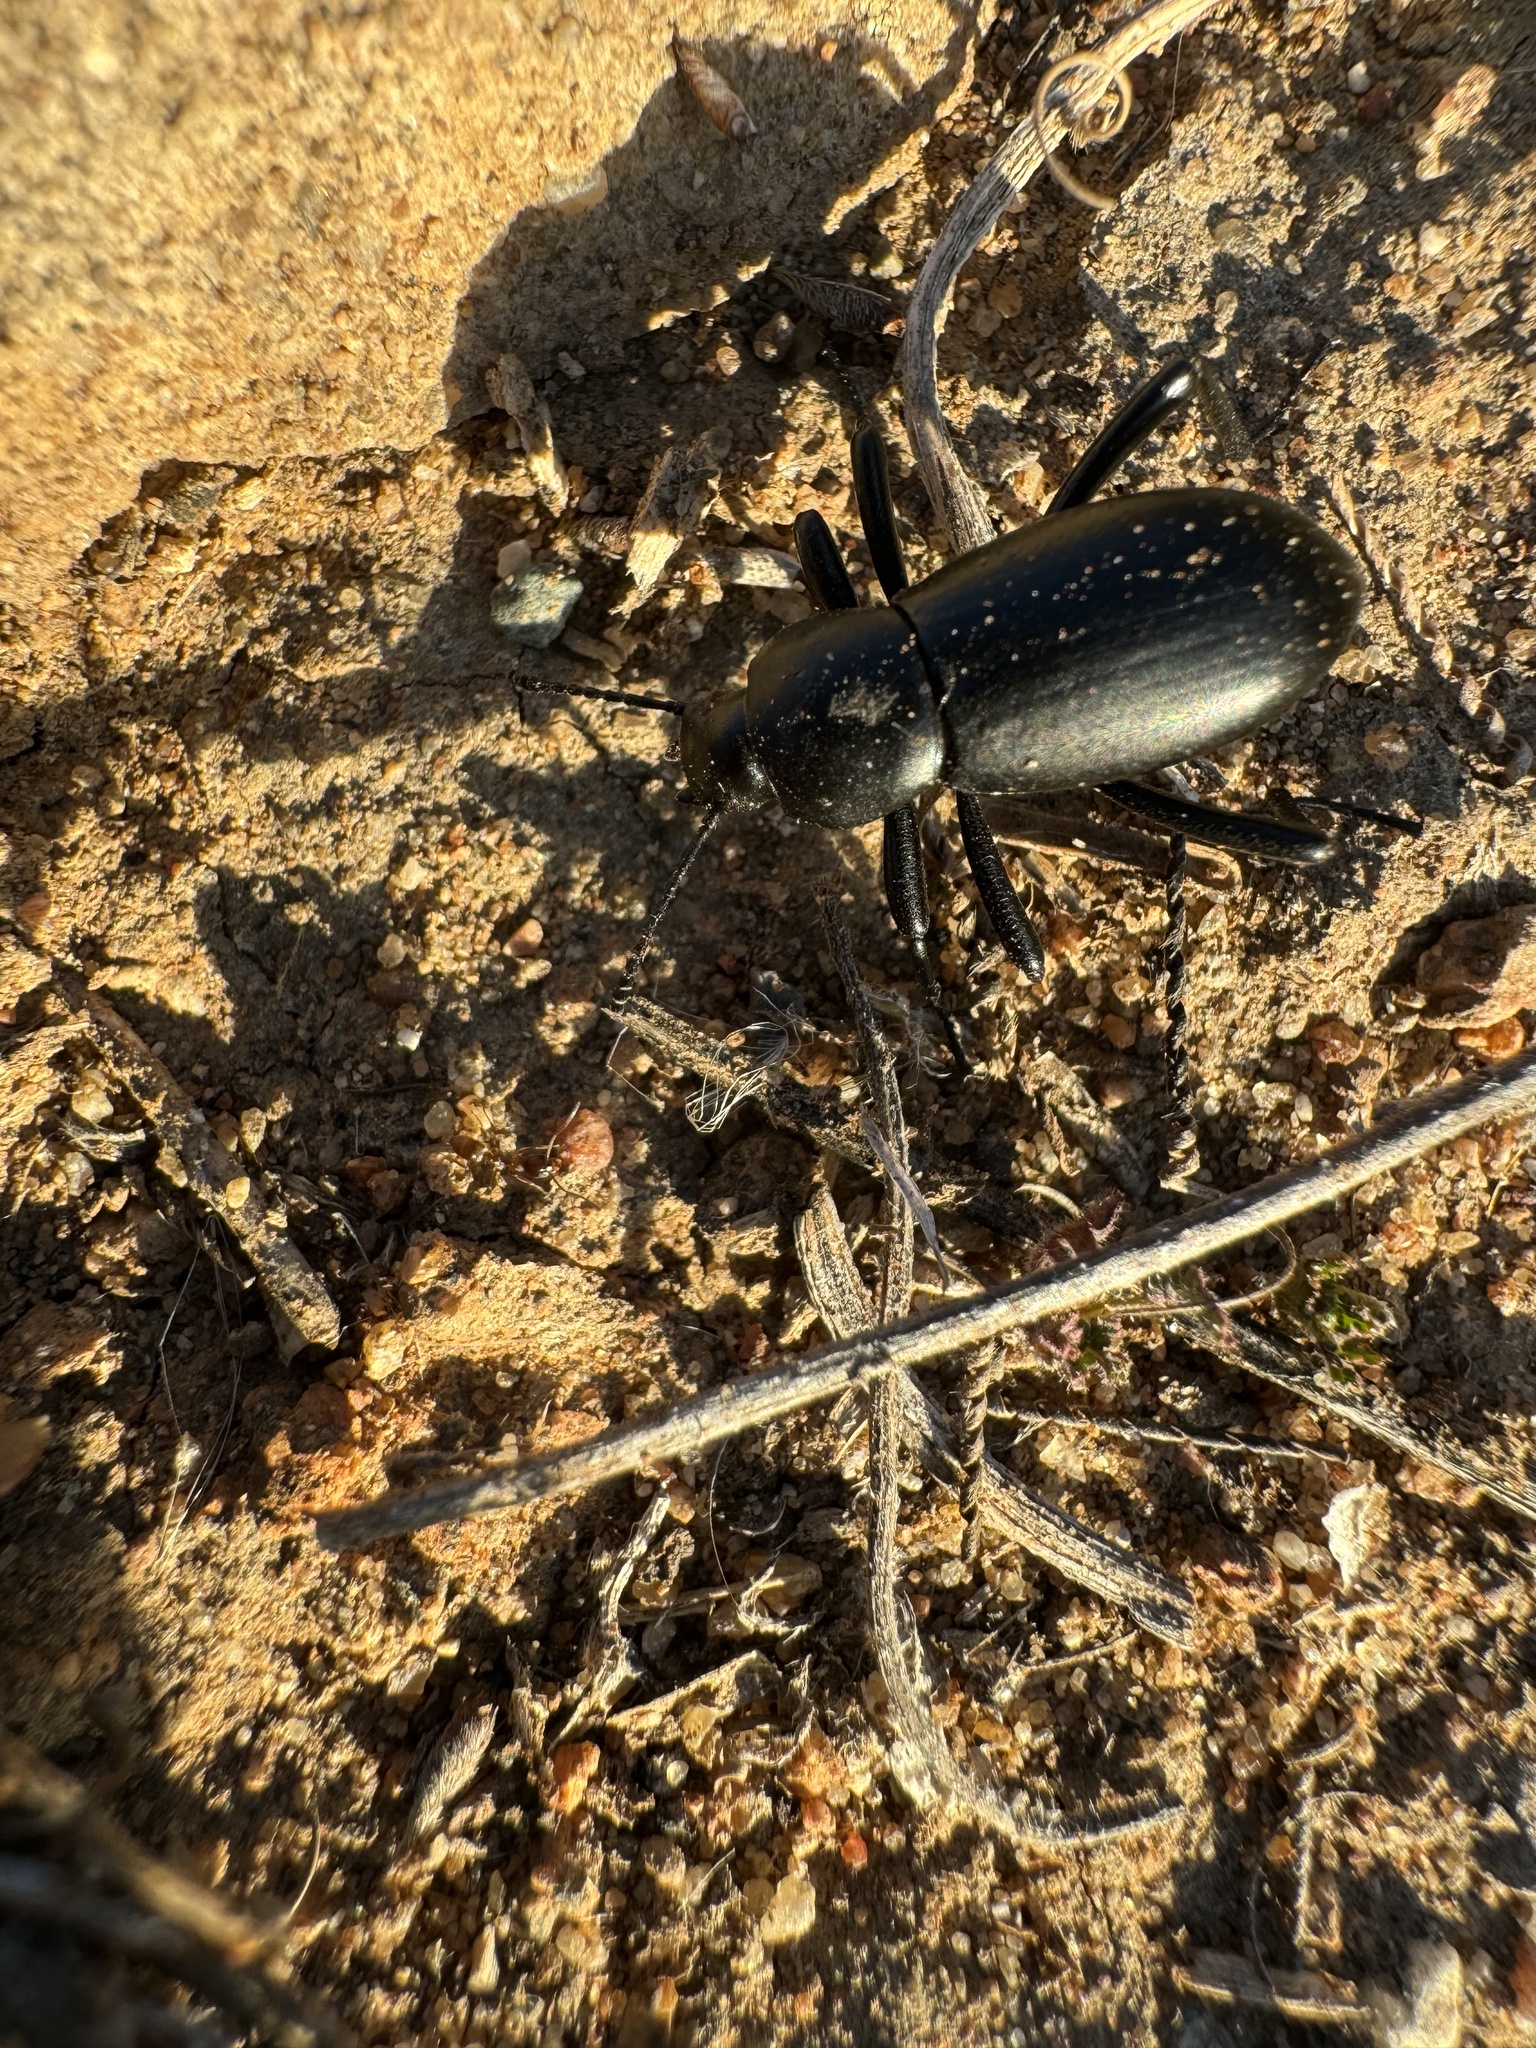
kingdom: Animalia
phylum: Arthropoda
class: Insecta
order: Coleoptera
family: Tenebrionidae
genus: Eleodes
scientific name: Eleodes carbonaria
